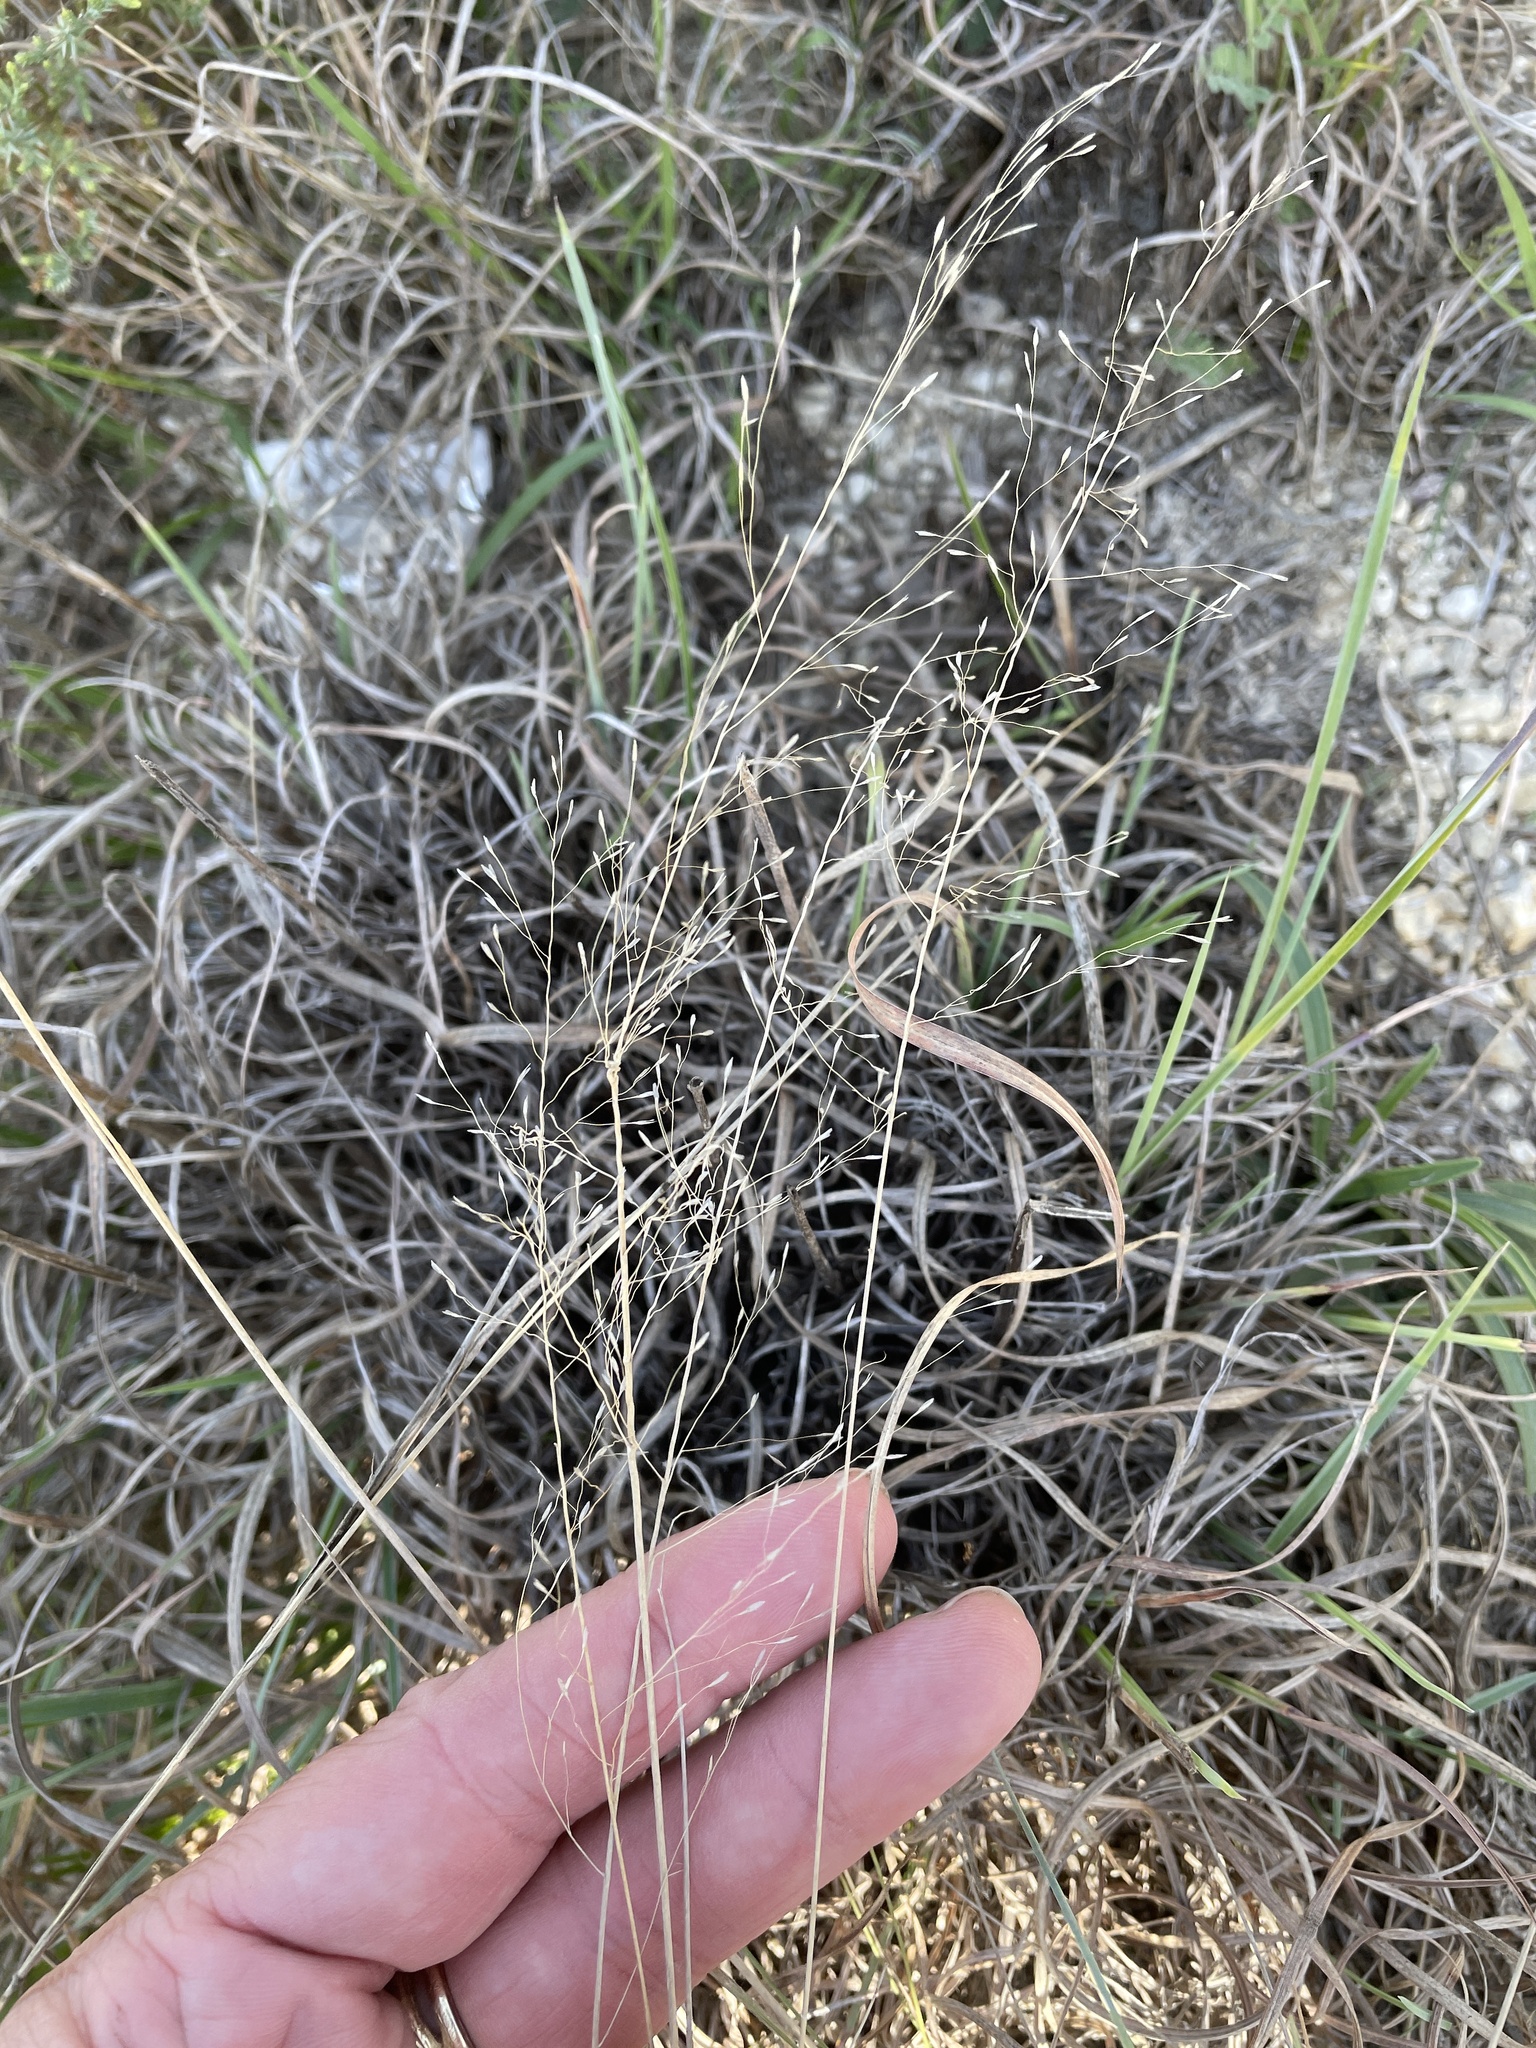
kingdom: Plantae
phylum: Tracheophyta
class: Liliopsida
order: Poales
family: Poaceae
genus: Muhlenbergia
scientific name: Muhlenbergia reverchonii
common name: Seep muhly
